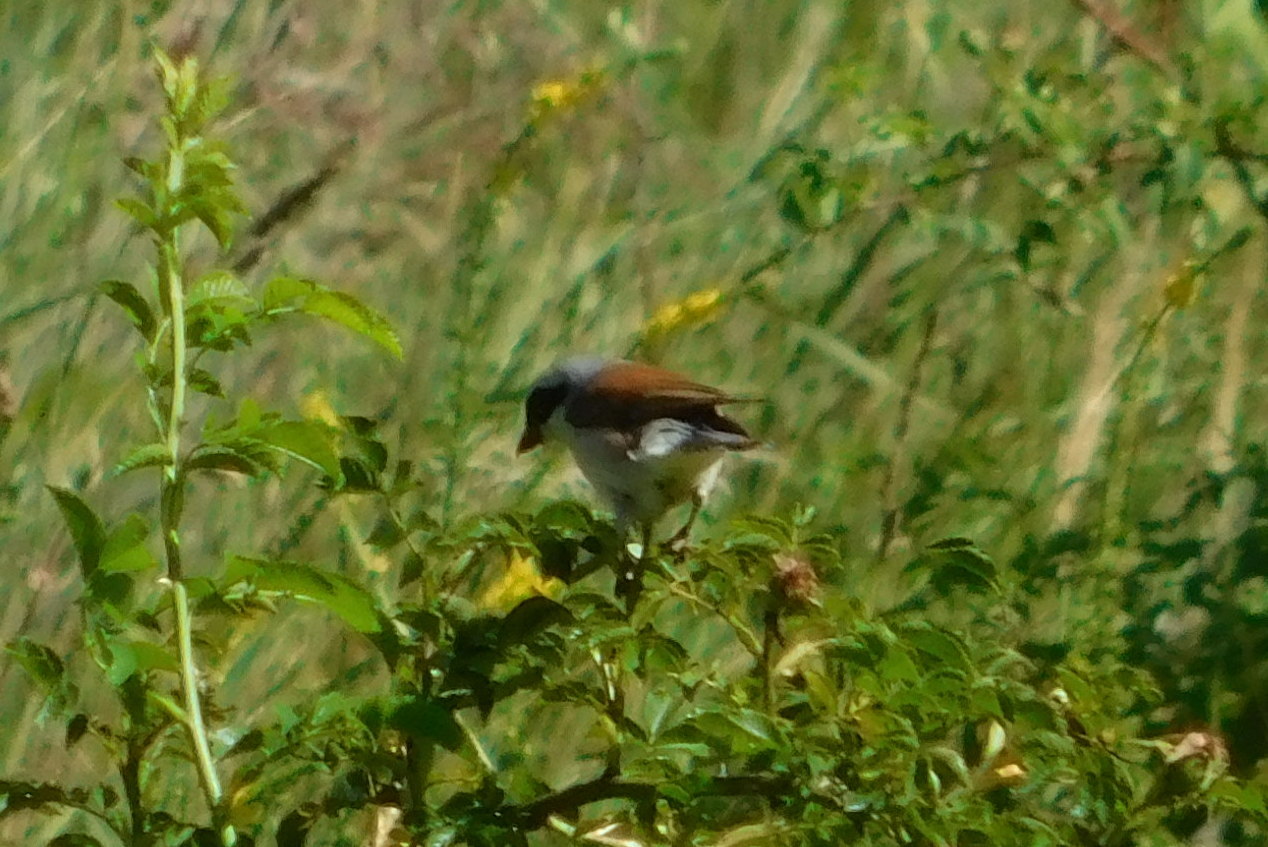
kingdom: Animalia
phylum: Chordata
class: Aves
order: Passeriformes
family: Laniidae
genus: Lanius
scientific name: Lanius collurio
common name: Red-backed shrike
